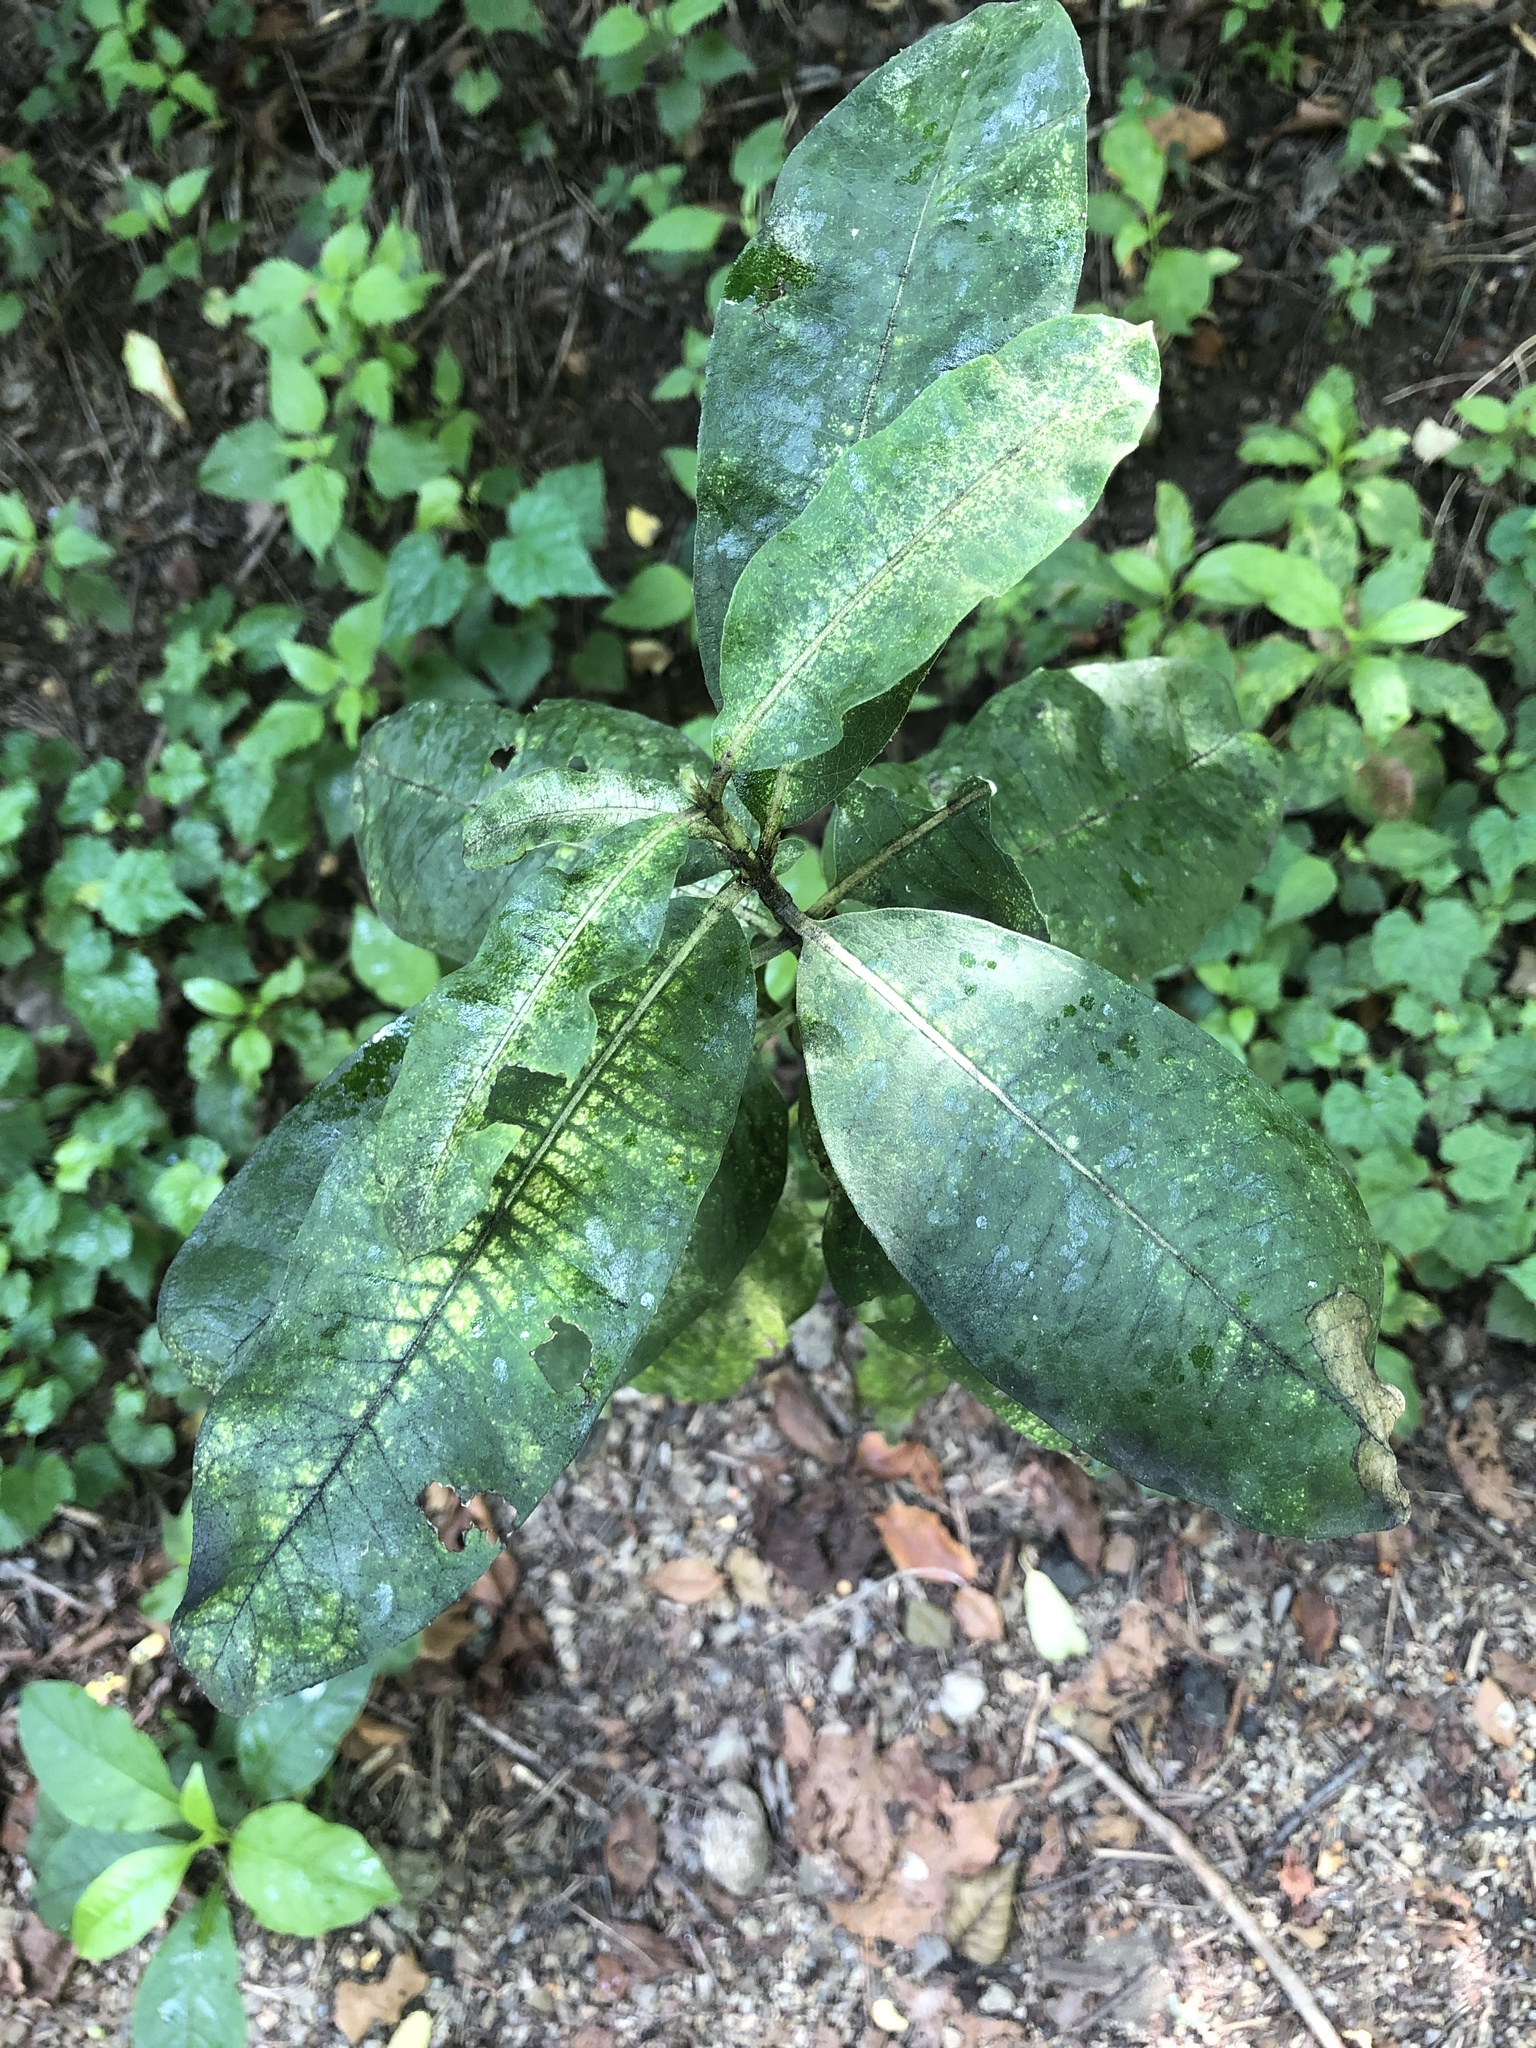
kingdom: Plantae
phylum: Tracheophyta
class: Magnoliopsida
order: Gentianales
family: Apocynaceae
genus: Asclepias
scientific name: Asclepias syriaca
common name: Common milkweed
